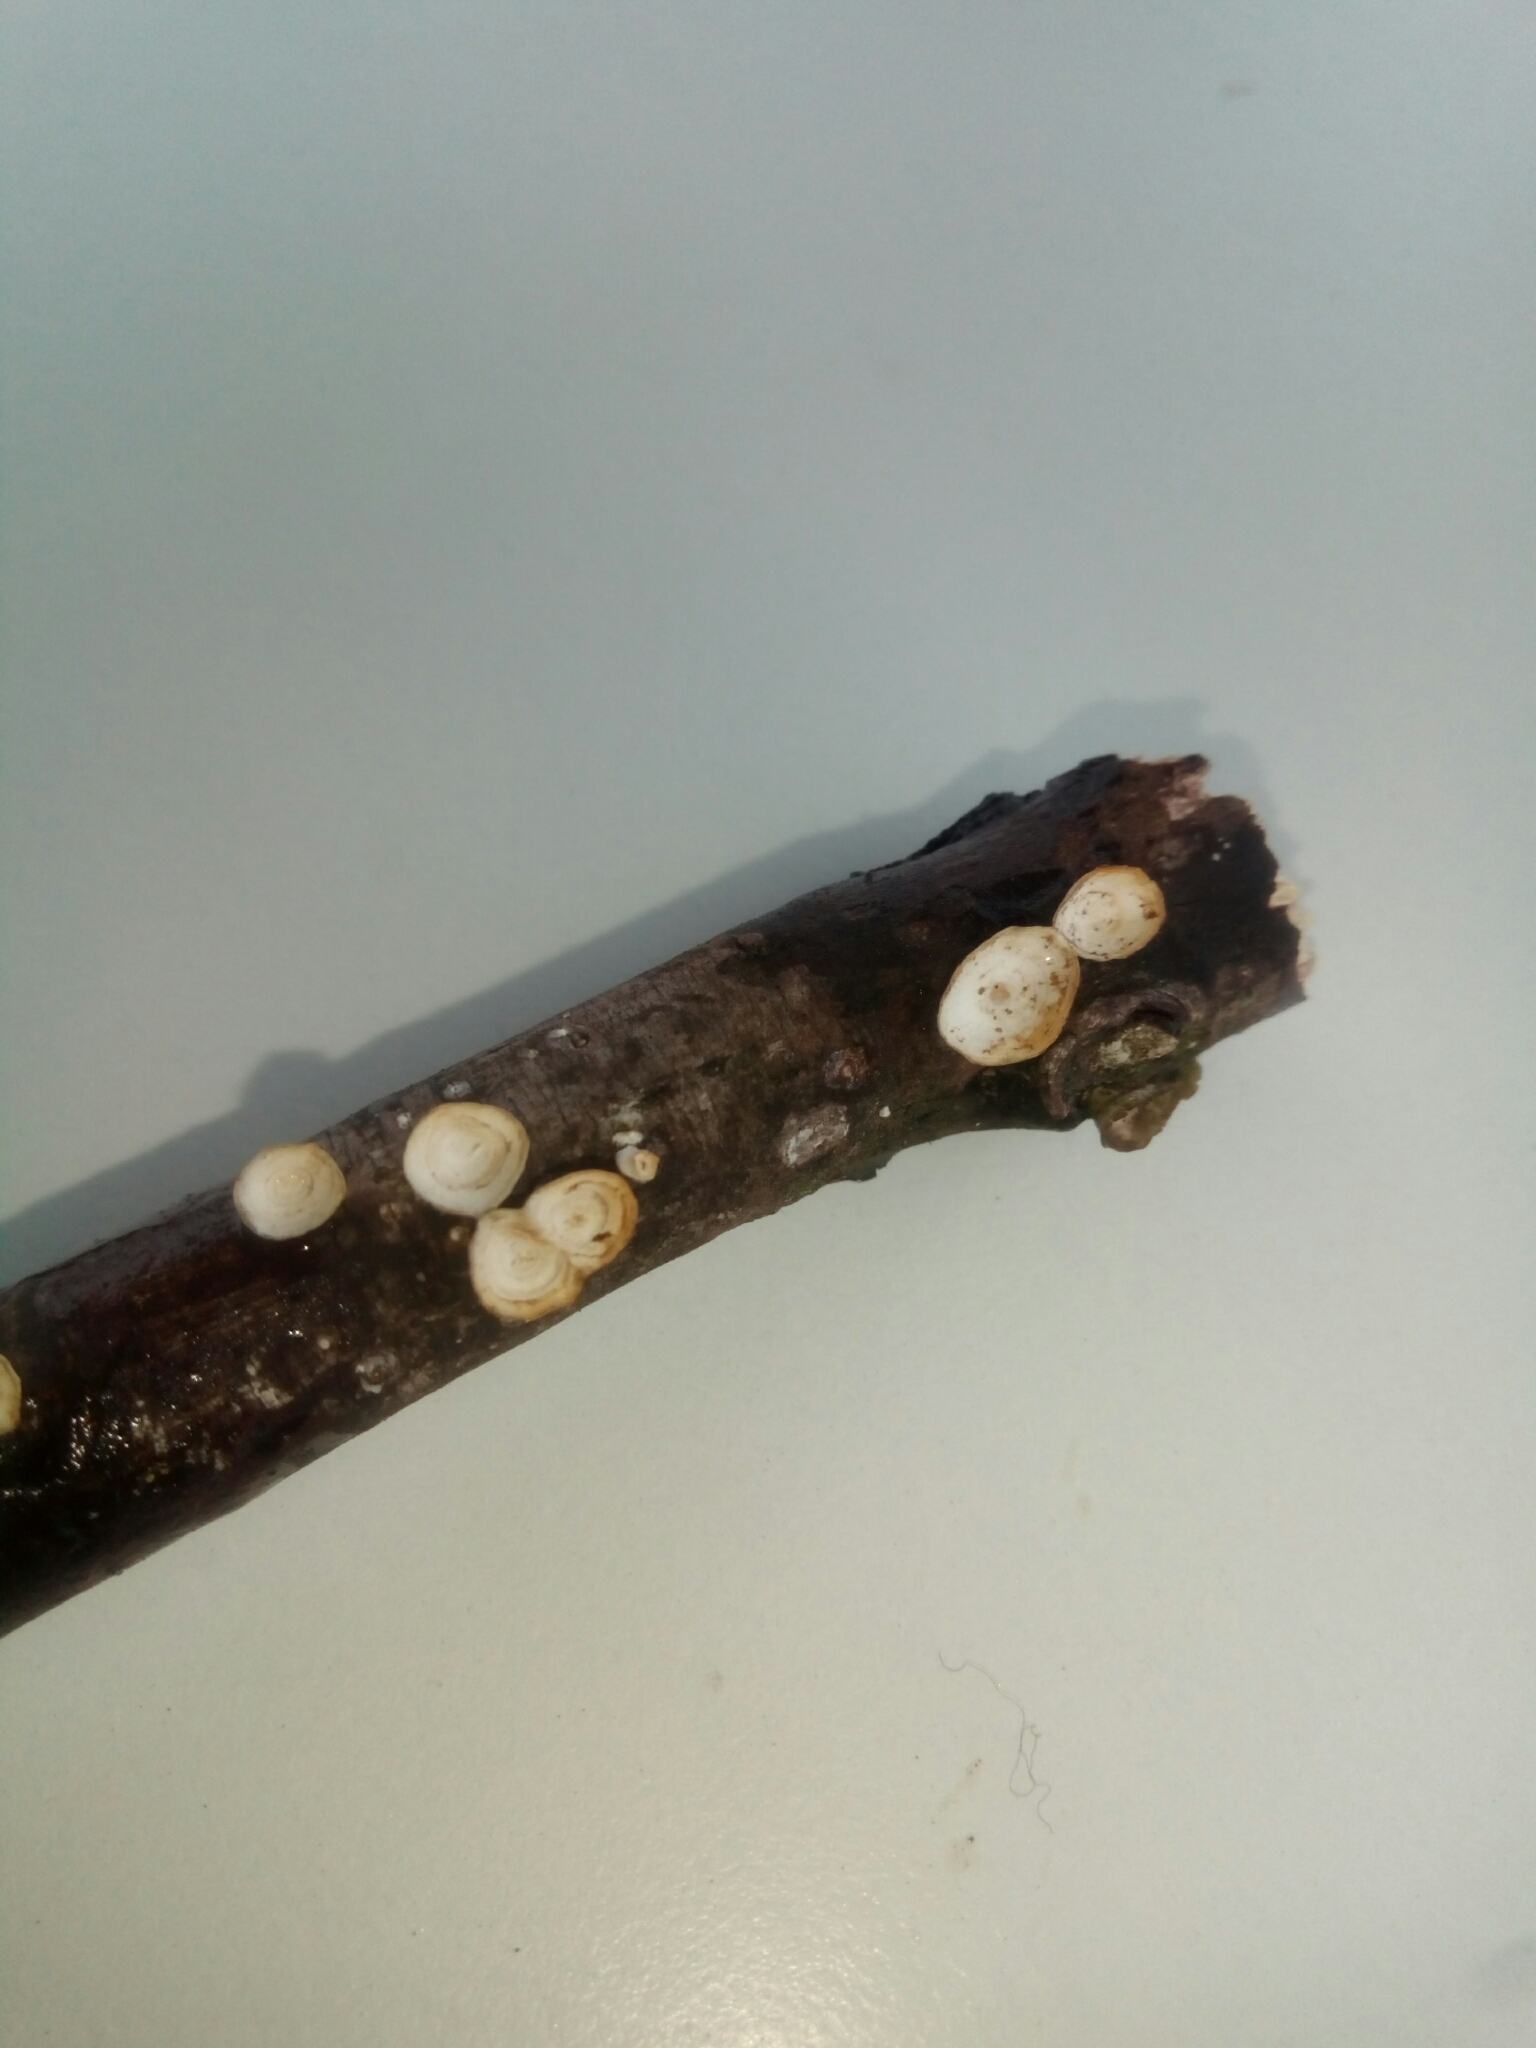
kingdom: Fungi
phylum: Basidiomycota
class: Agaricomycetes
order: Polyporales
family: Polyporaceae
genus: Poronidulus
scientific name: Poronidulus conchifer
